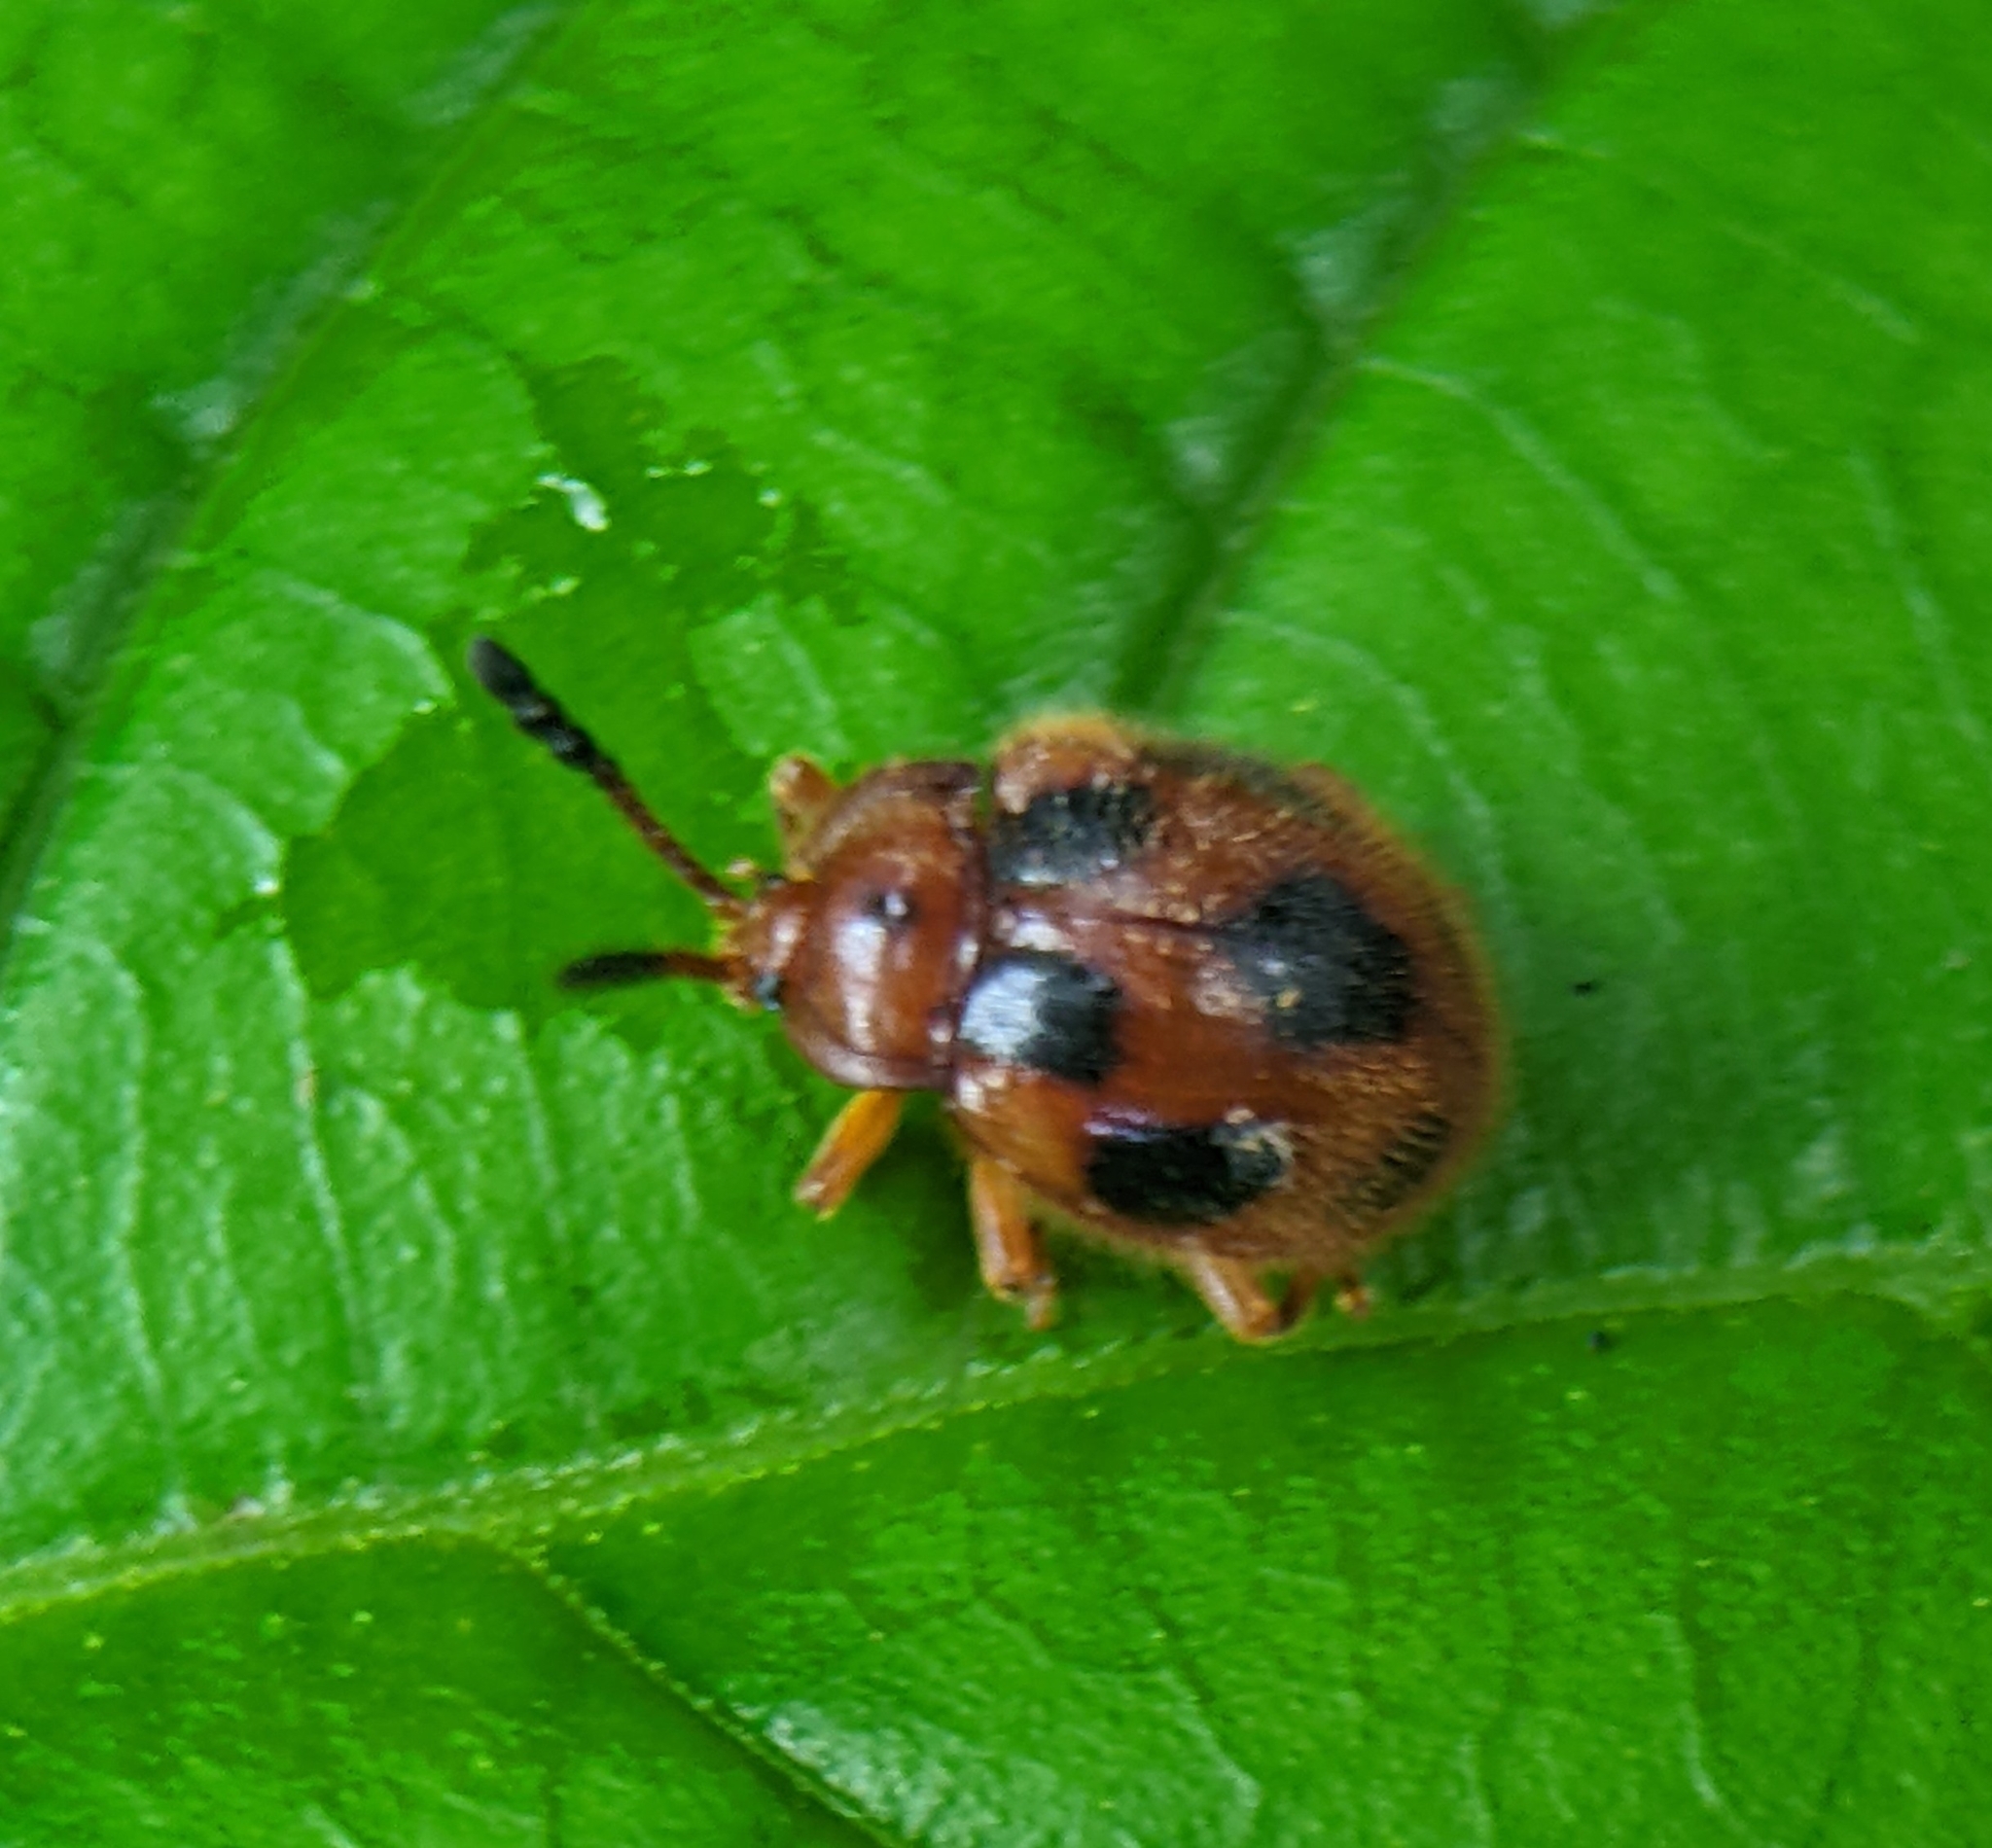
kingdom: Animalia
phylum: Arthropoda
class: Insecta
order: Coleoptera
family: Endomychidae
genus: Stenotarsus
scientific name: Stenotarsus
